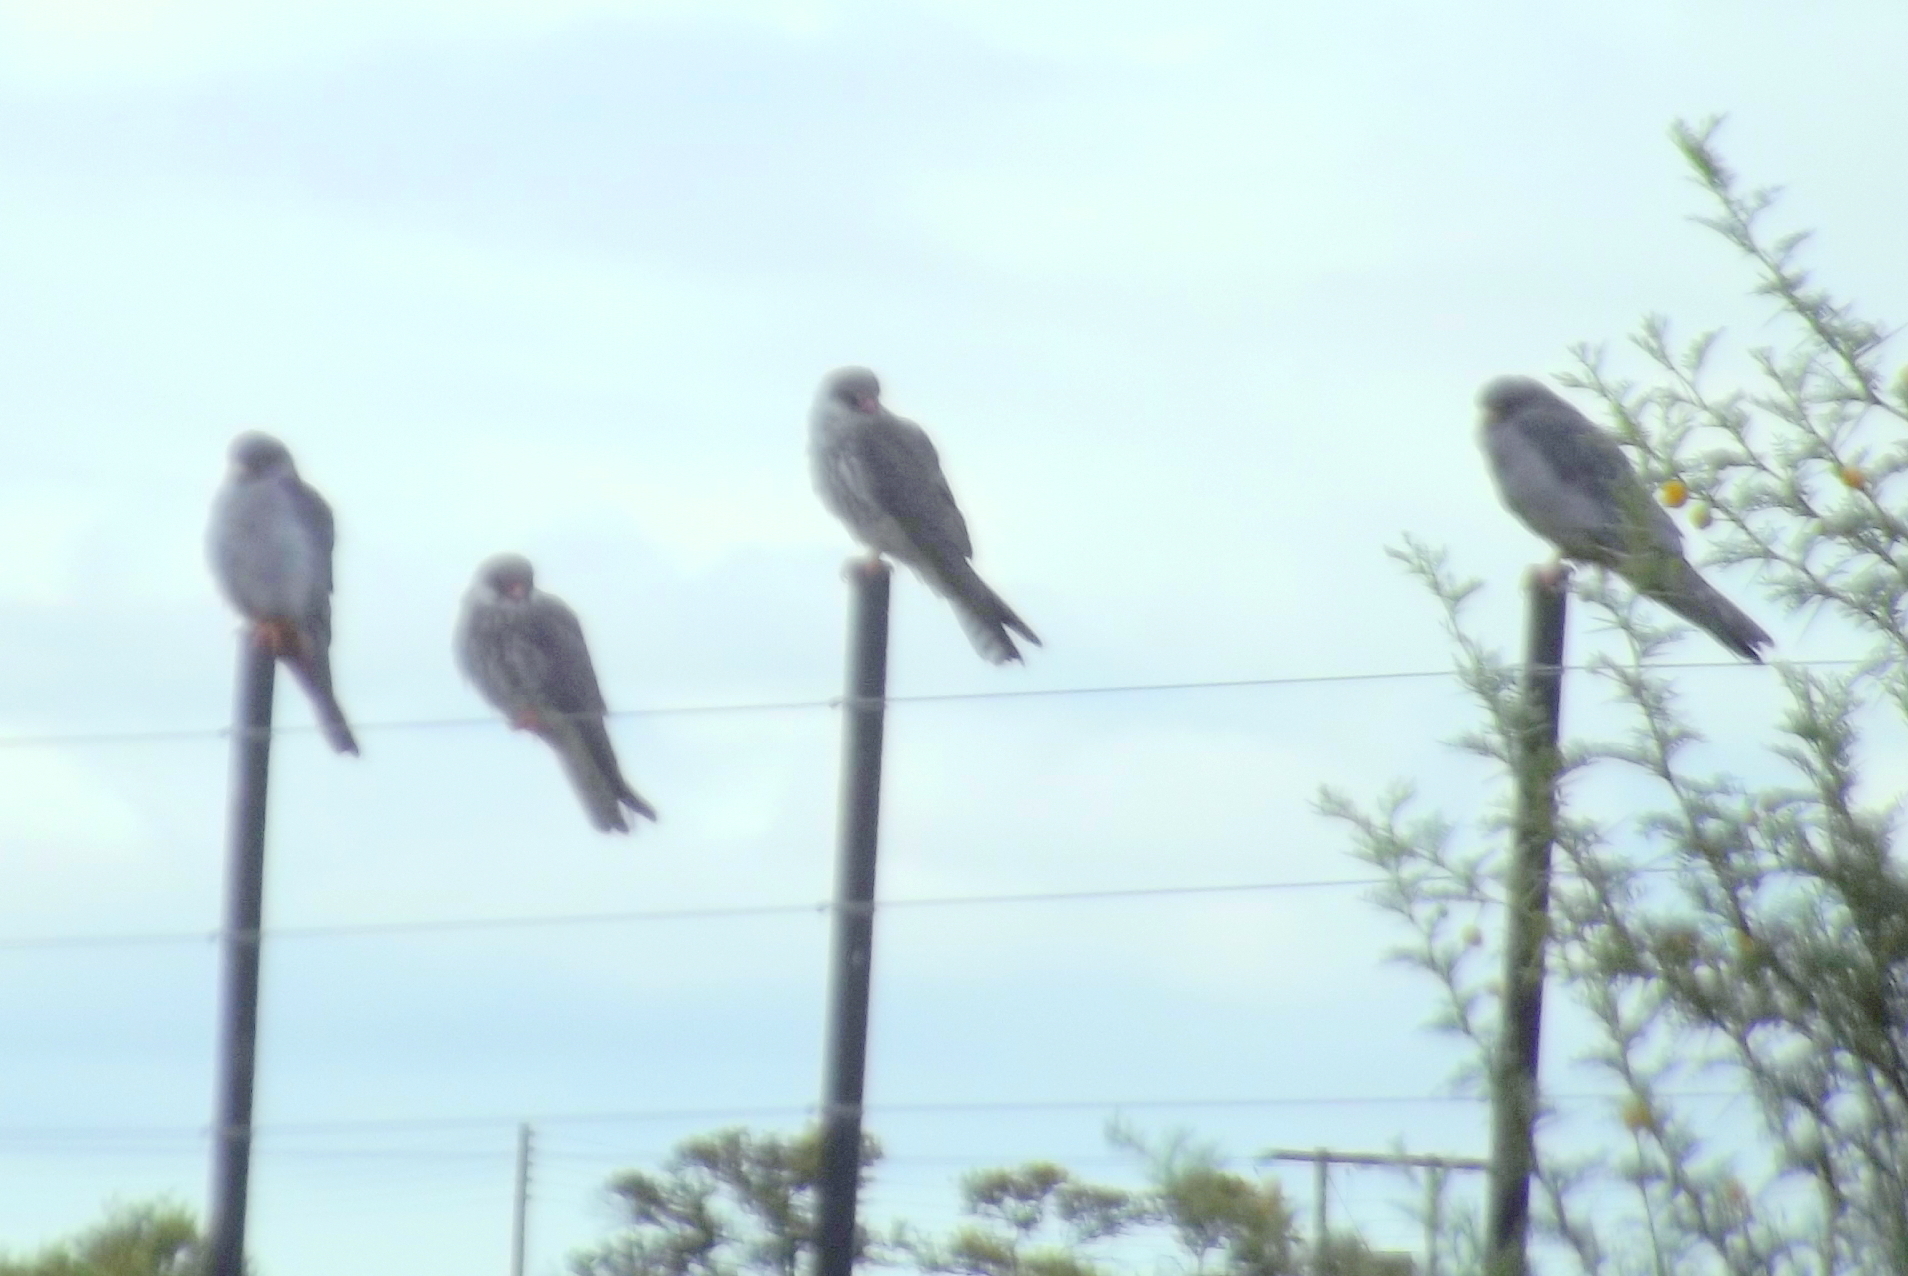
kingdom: Animalia
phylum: Chordata
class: Aves
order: Falconiformes
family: Falconidae
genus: Falco
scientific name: Falco amurensis
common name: Amur falcon
